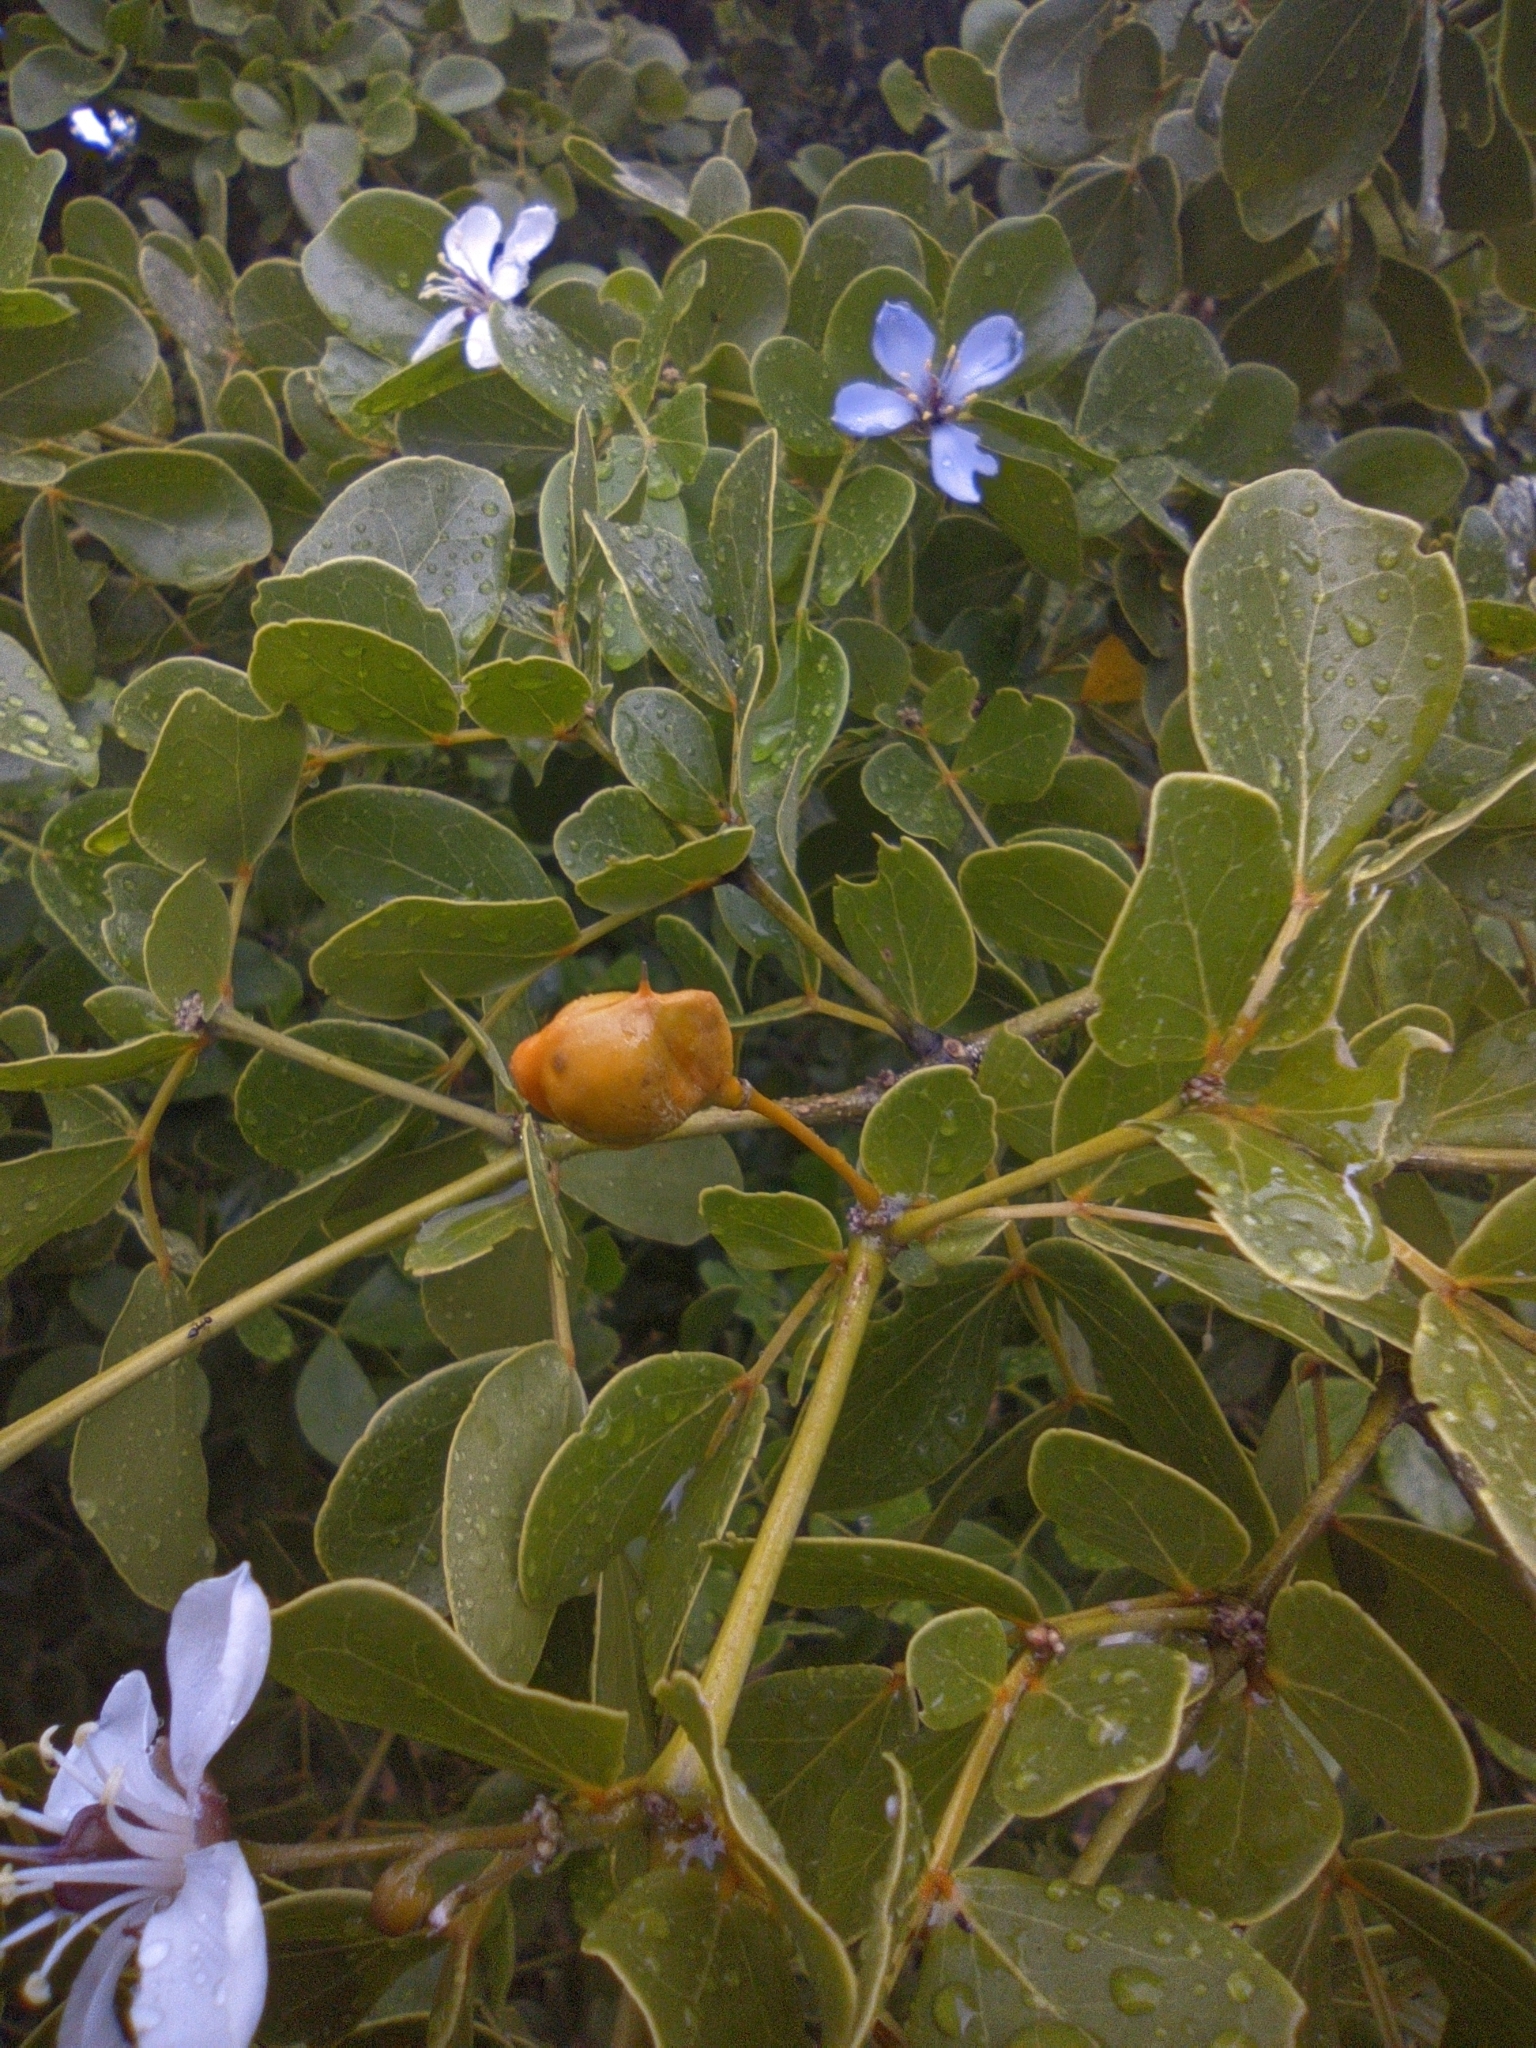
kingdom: Plantae
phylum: Tracheophyta
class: Magnoliopsida
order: Zygophyllales
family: Zygophyllaceae
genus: Guaiacum
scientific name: Guaiacum officinale
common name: Lignum vitae
